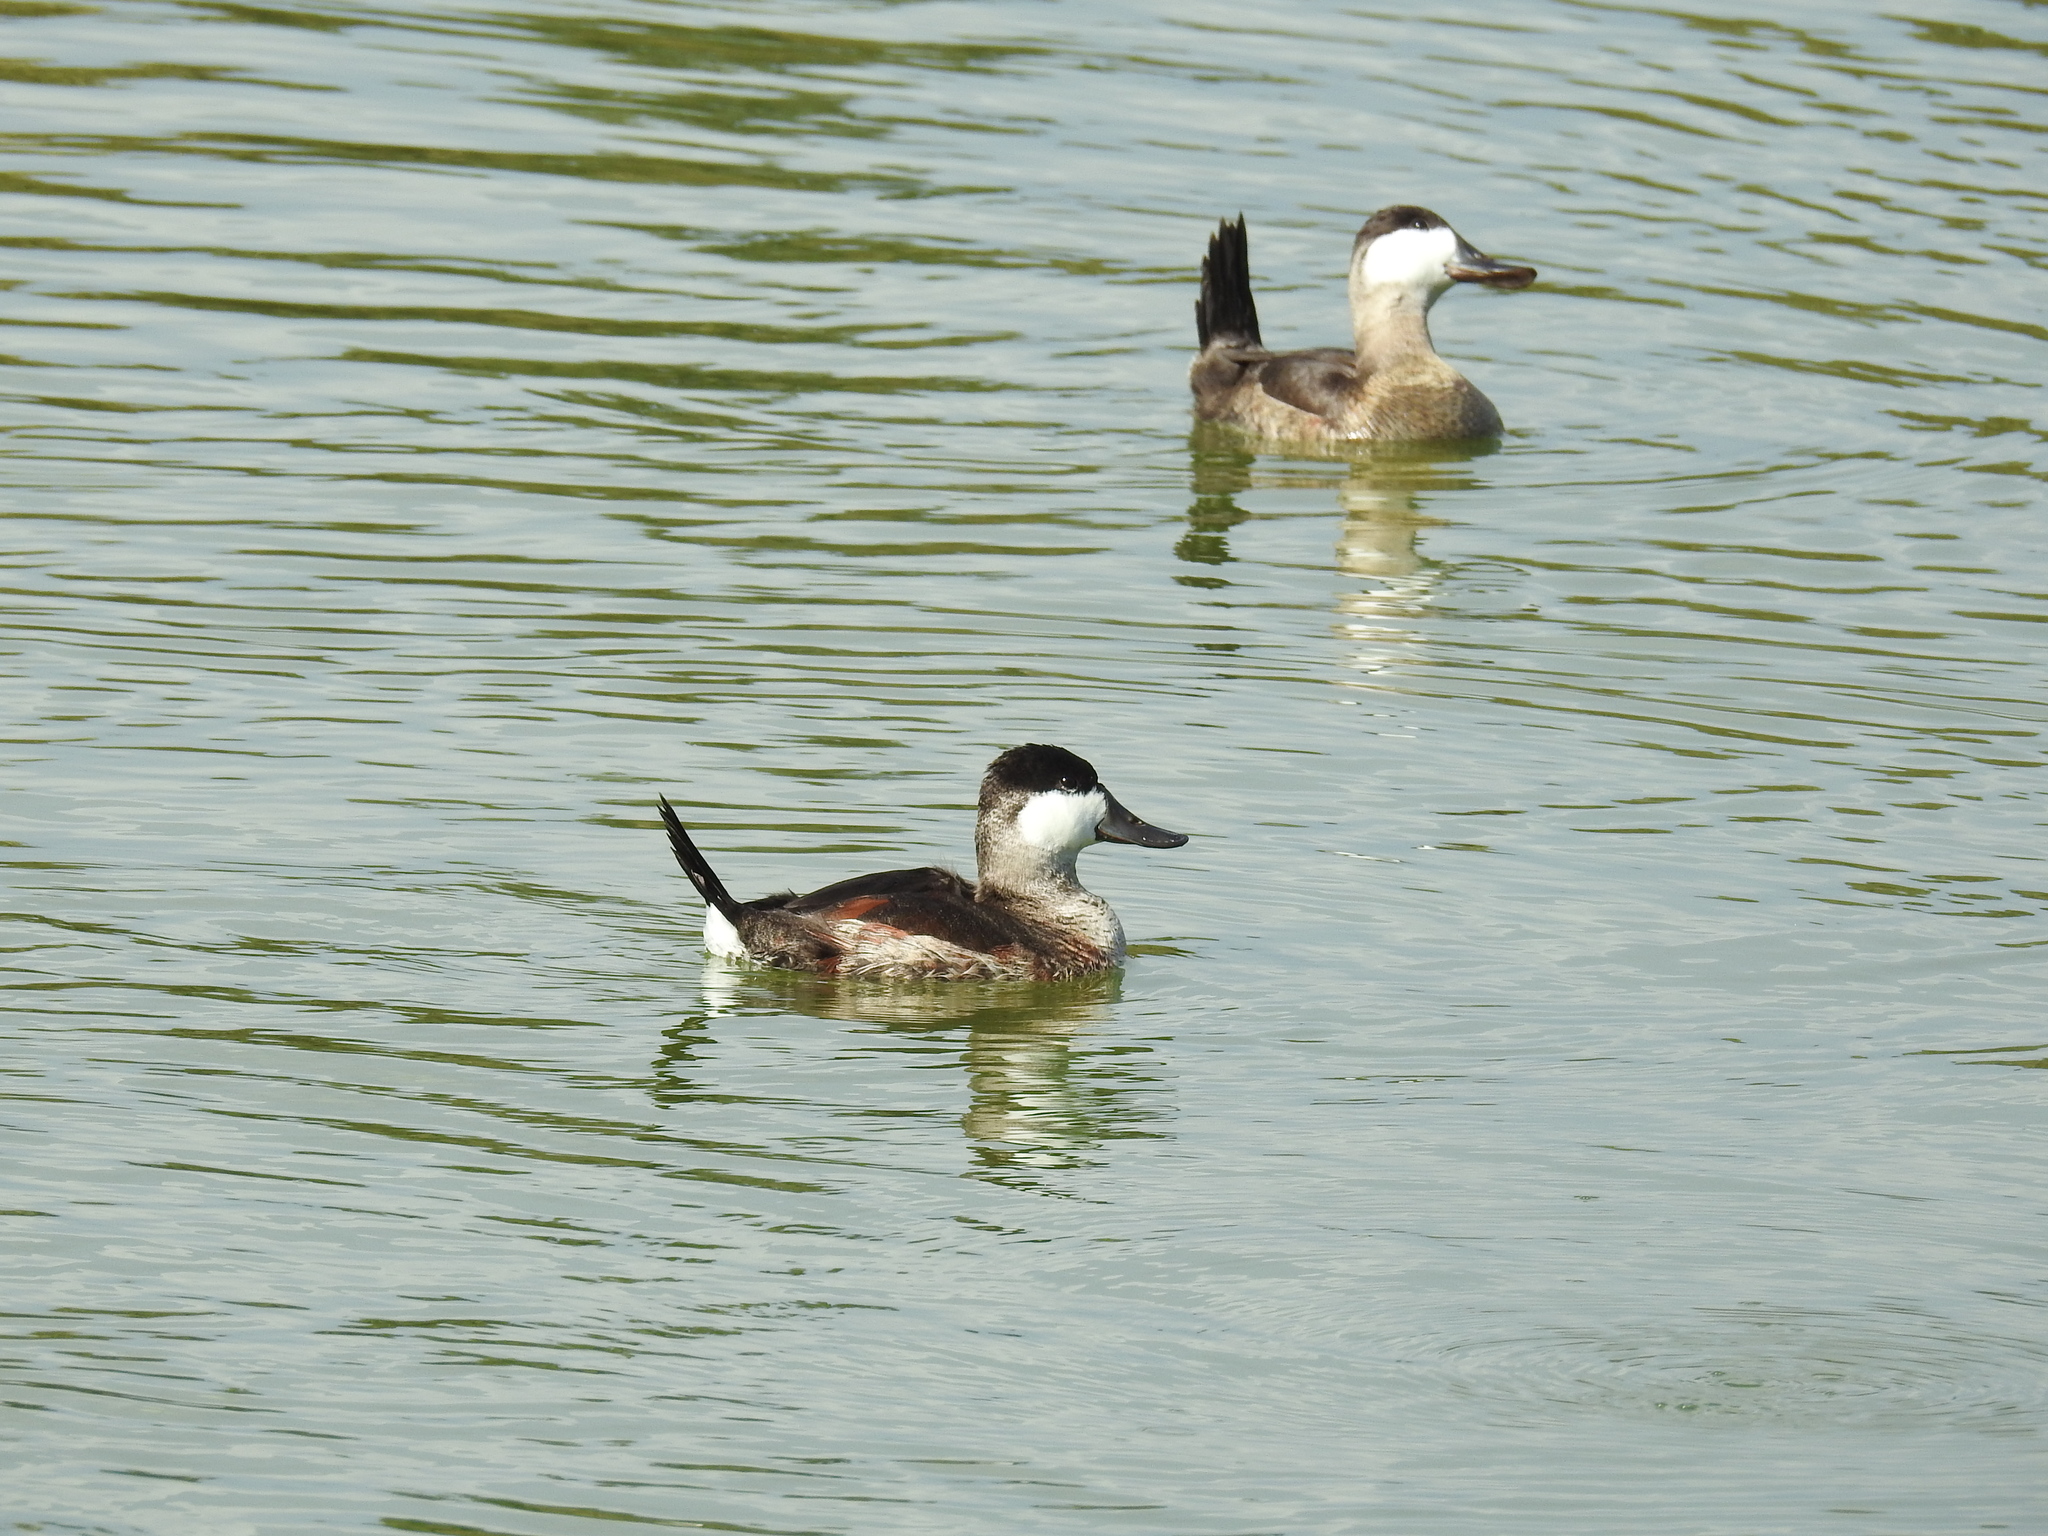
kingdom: Animalia
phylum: Chordata
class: Aves
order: Anseriformes
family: Anatidae
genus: Oxyura
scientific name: Oxyura jamaicensis
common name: Ruddy duck
